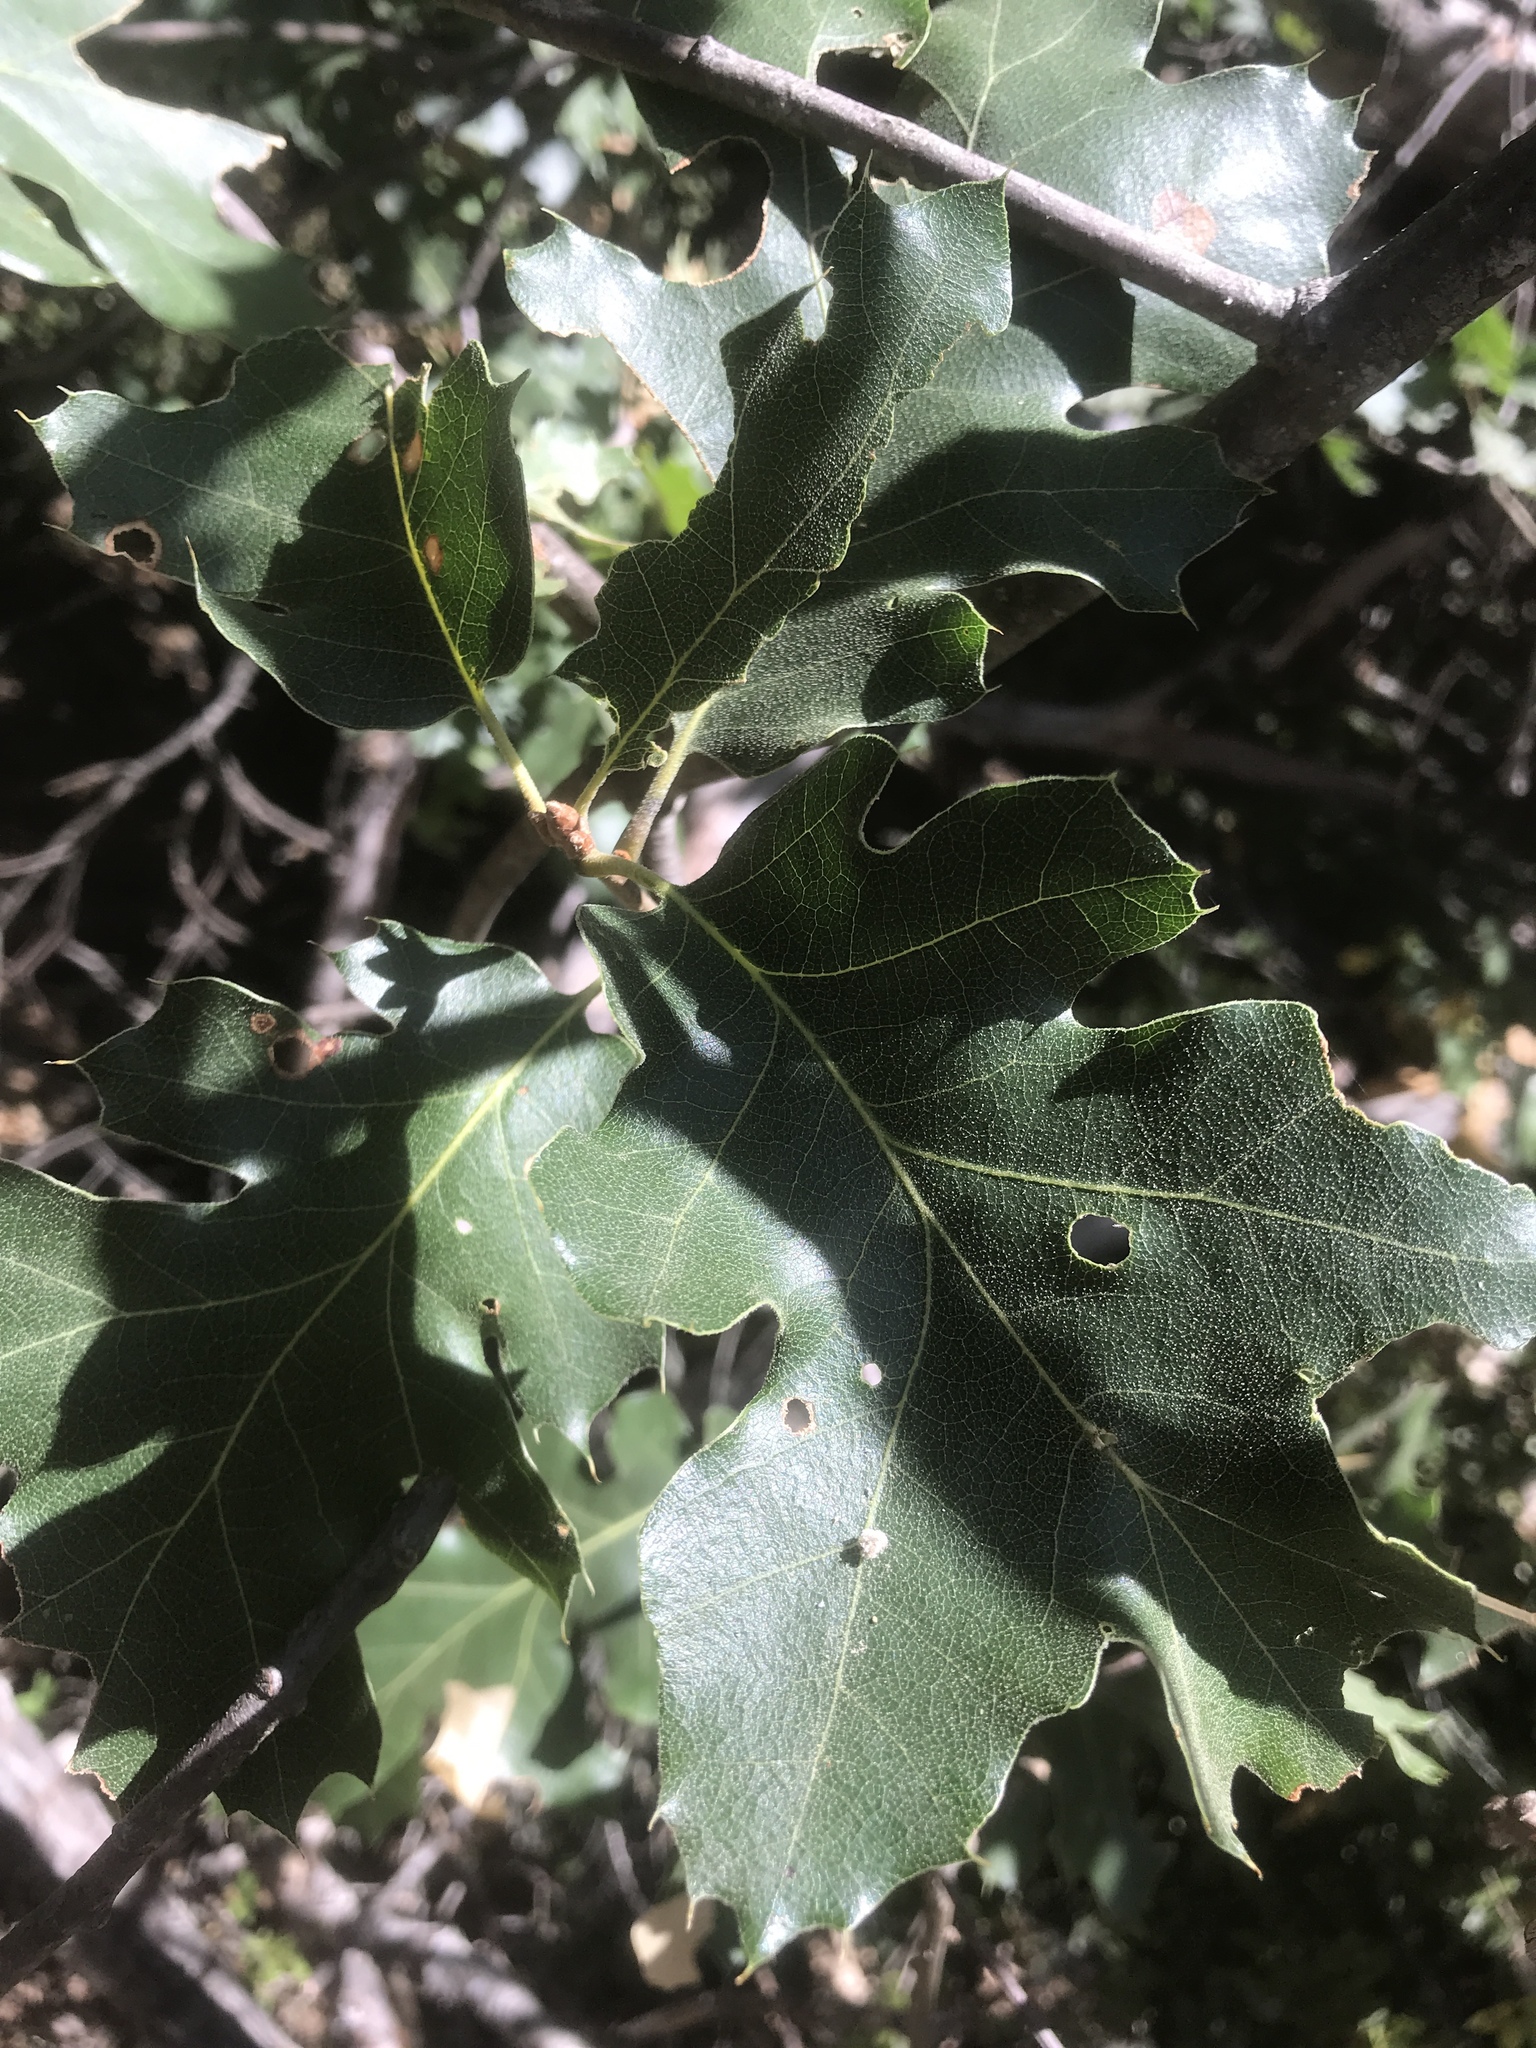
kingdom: Plantae
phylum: Tracheophyta
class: Magnoliopsida
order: Fagales
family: Fagaceae
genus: Quercus
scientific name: Quercus kelloggii
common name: California black oak
